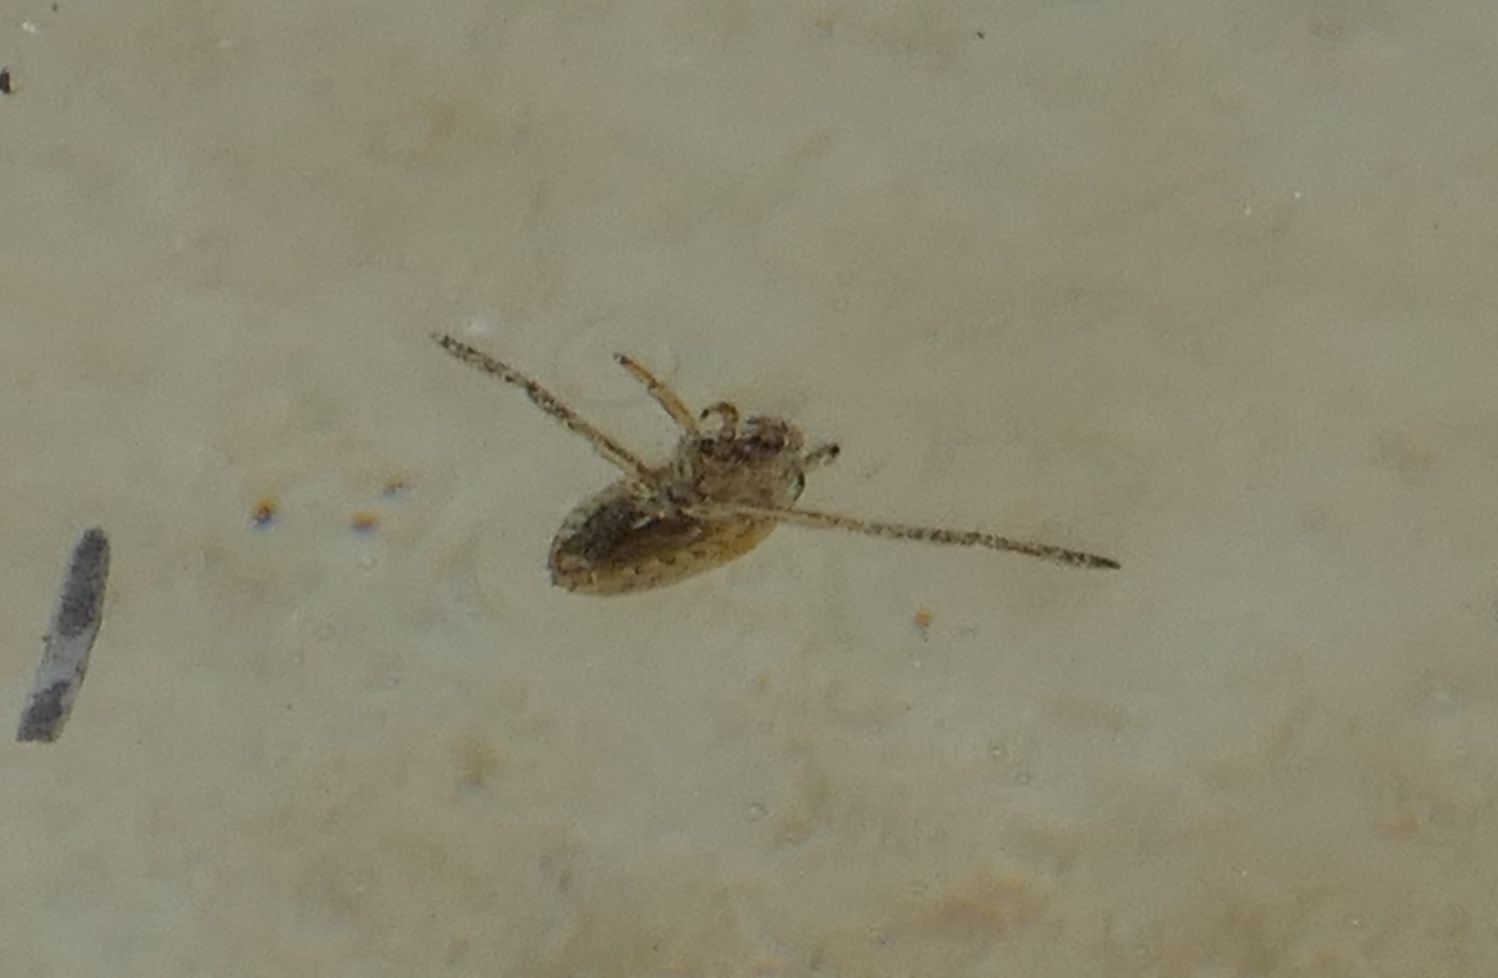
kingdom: Animalia
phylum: Arthropoda
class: Insecta
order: Hemiptera
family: Notonectidae
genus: Notonecta
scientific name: Notonecta
